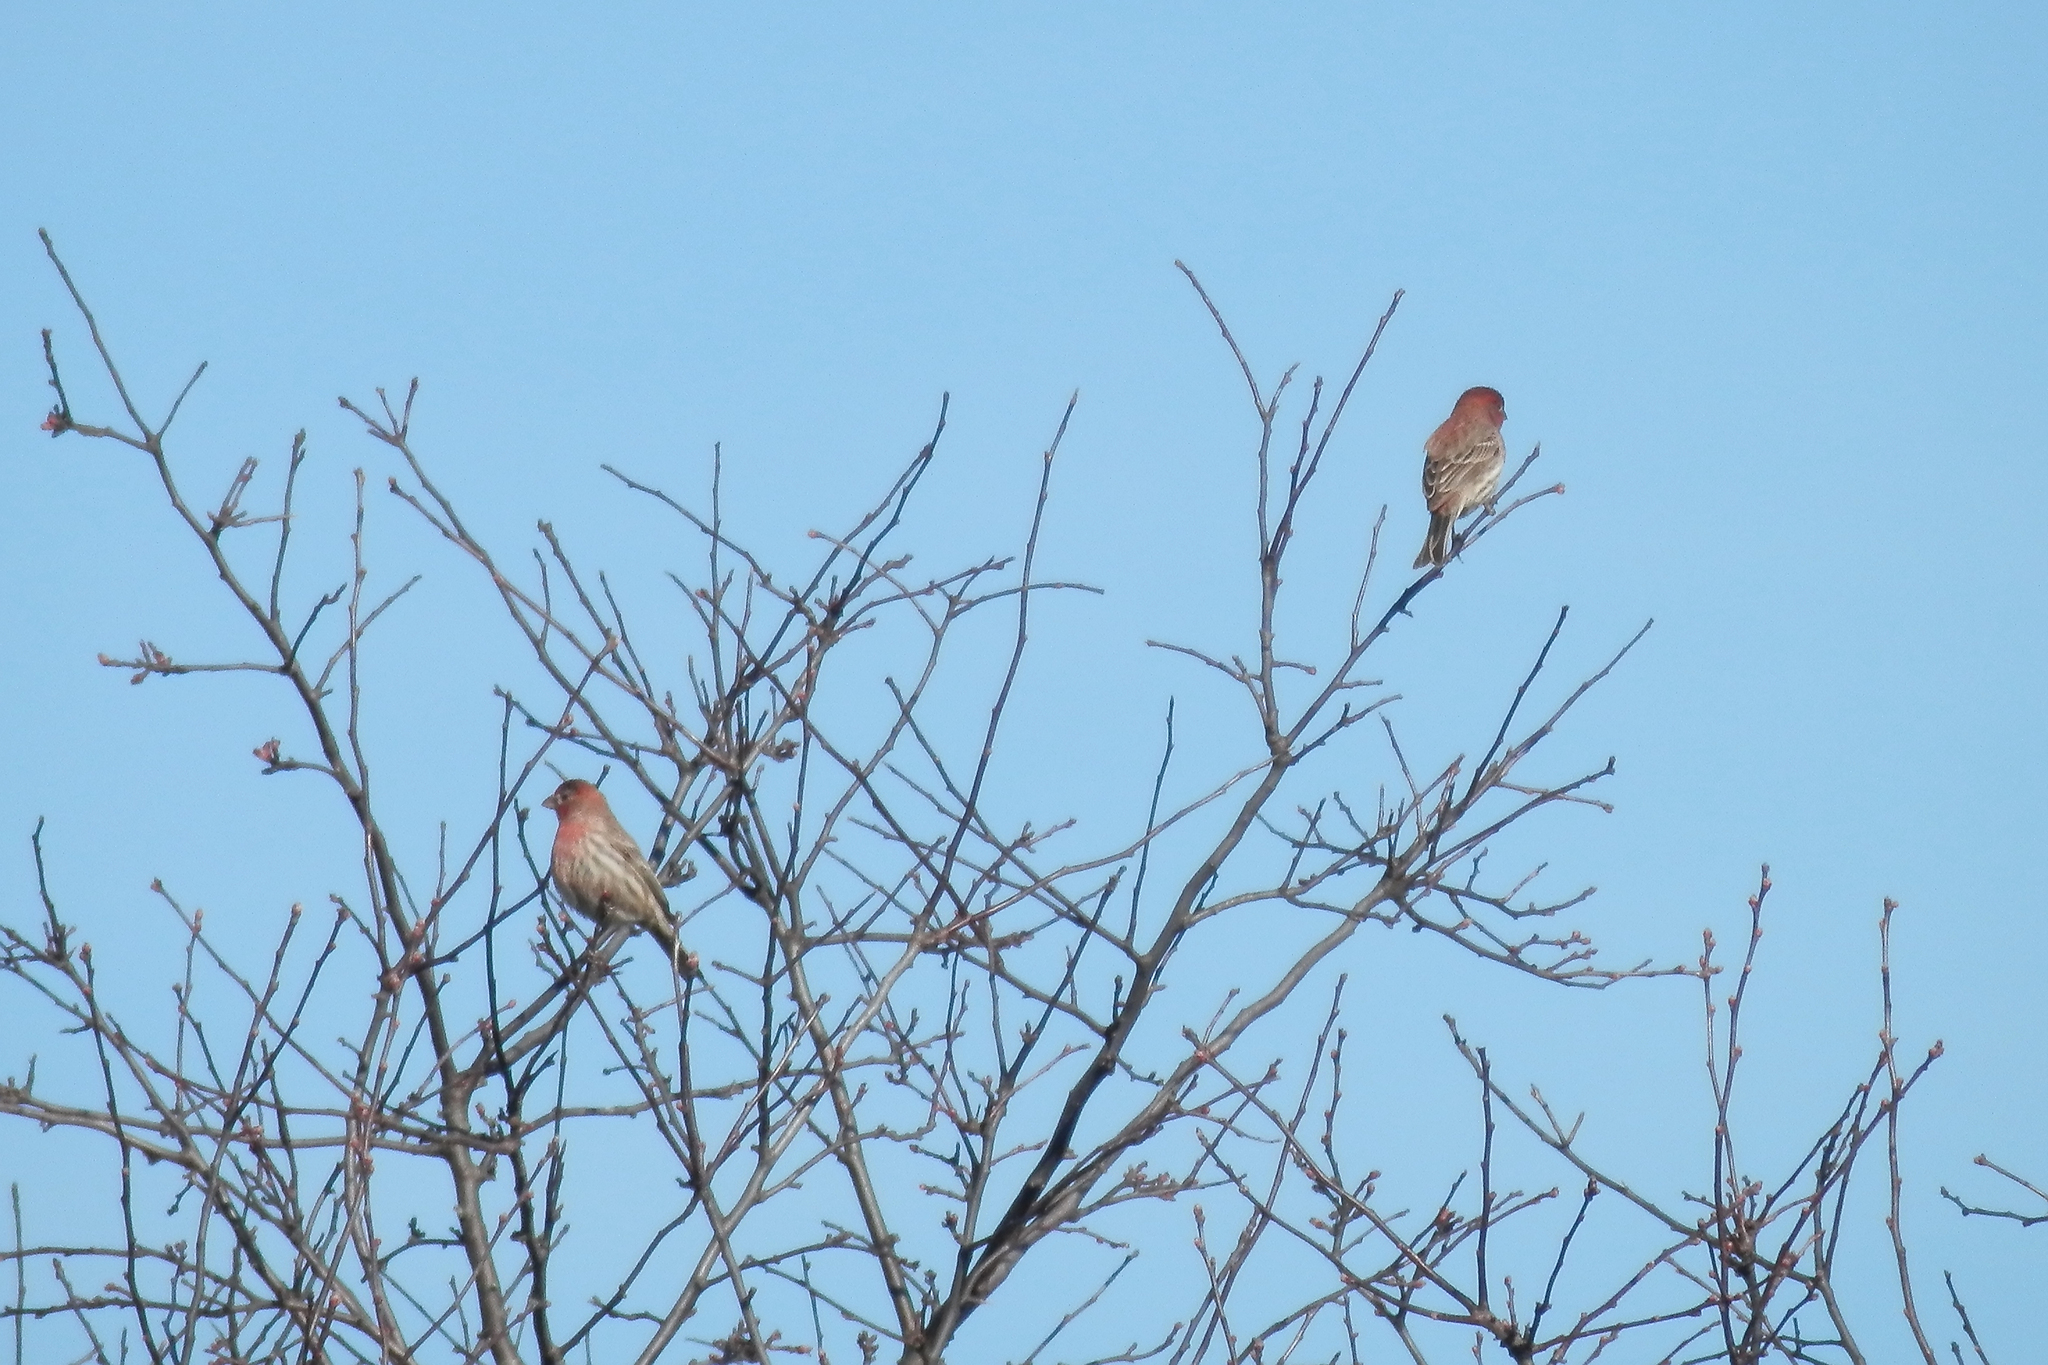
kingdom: Animalia
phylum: Chordata
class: Aves
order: Passeriformes
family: Fringillidae
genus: Haemorhous
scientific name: Haemorhous mexicanus
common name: House finch
